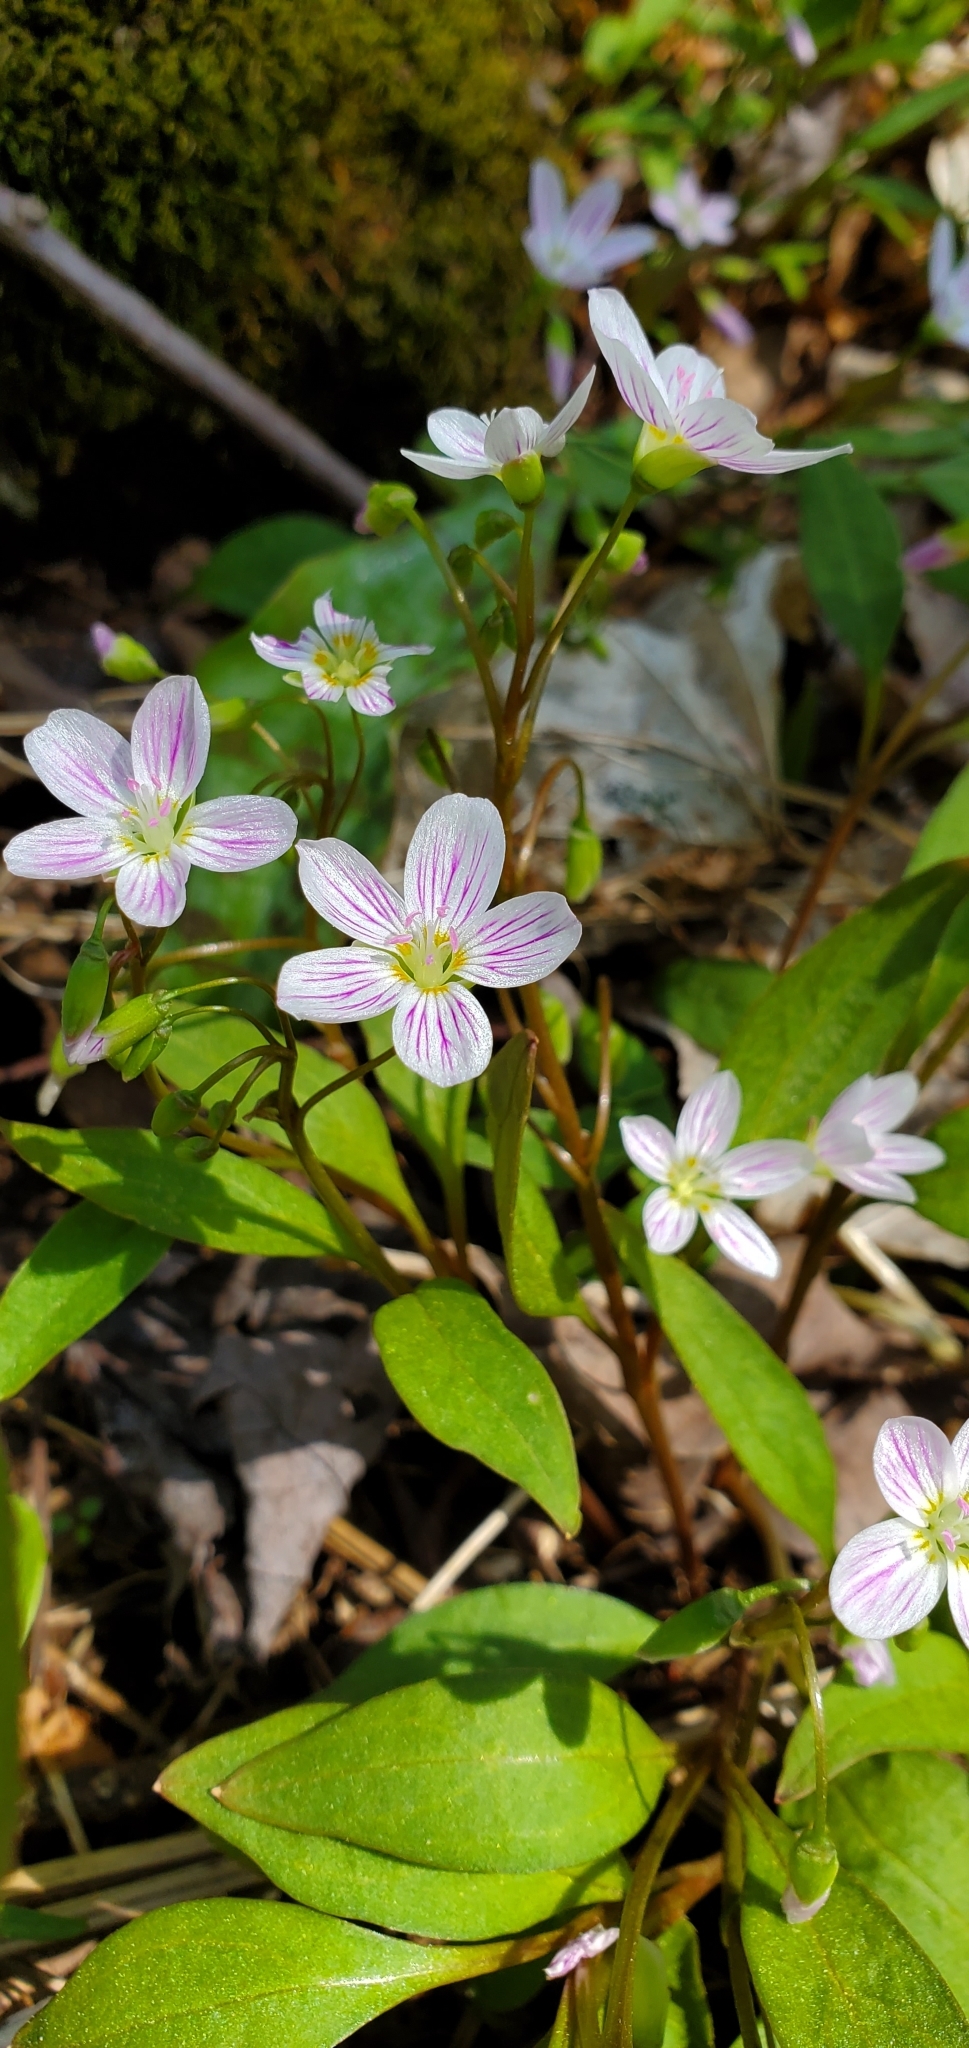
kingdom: Plantae
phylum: Tracheophyta
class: Magnoliopsida
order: Caryophyllales
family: Montiaceae
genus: Claytonia
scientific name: Claytonia caroliniana
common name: Carolina spring beauty
